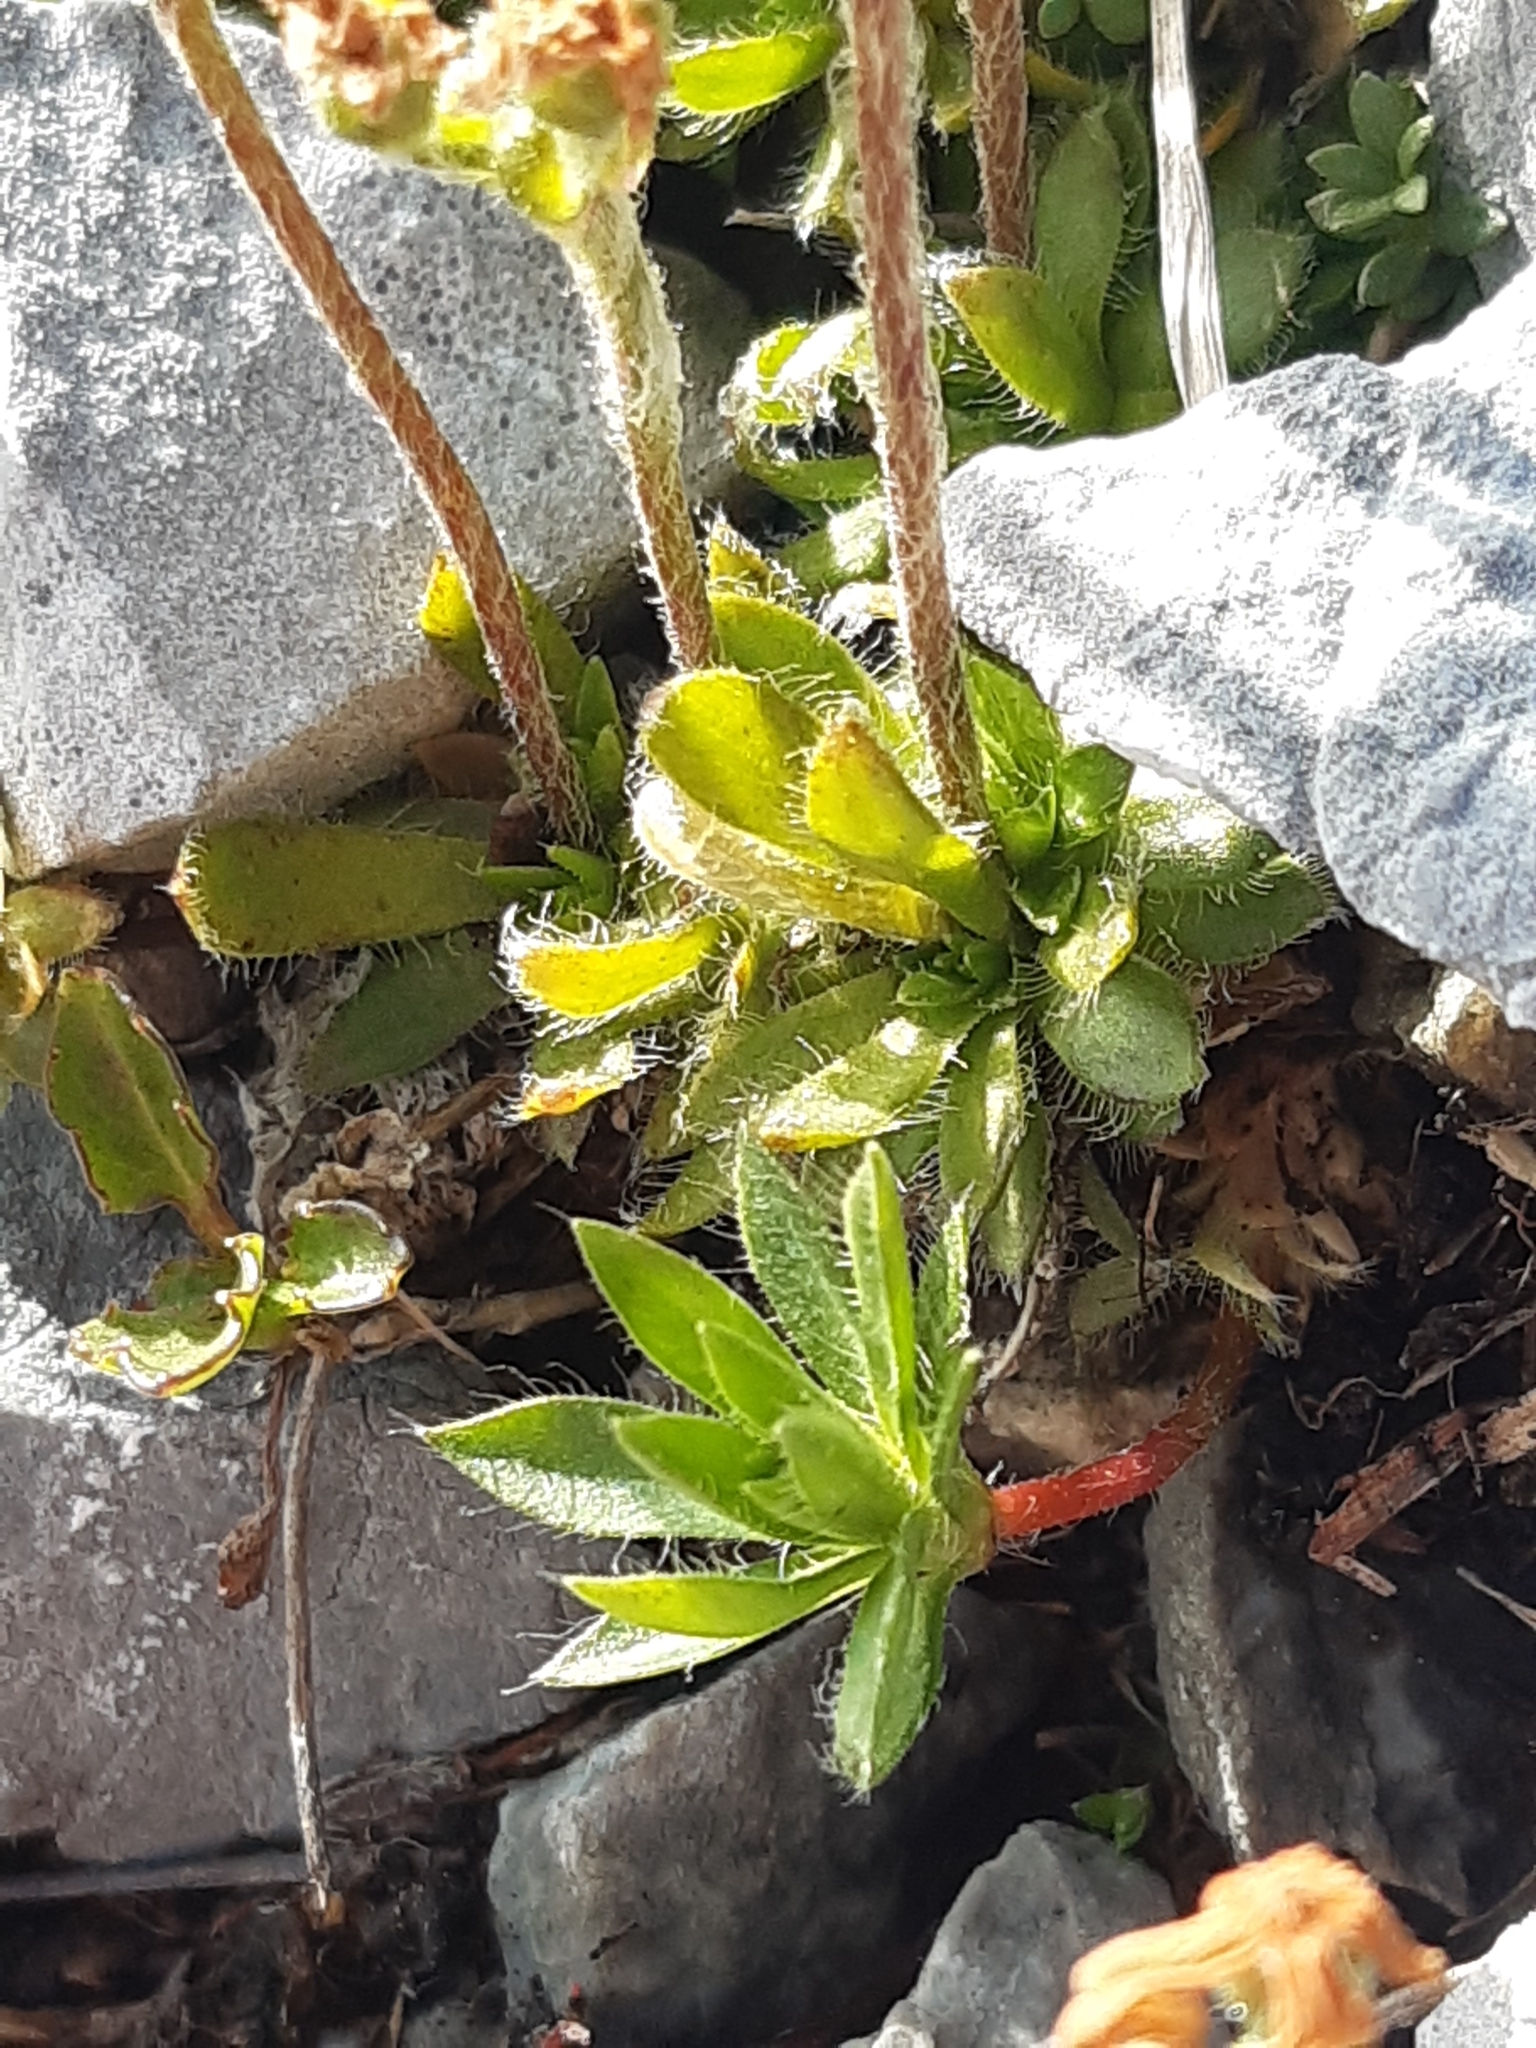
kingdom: Plantae
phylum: Tracheophyta
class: Magnoliopsida
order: Ericales
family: Primulaceae
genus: Androsace
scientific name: Androsace chamaejasme
